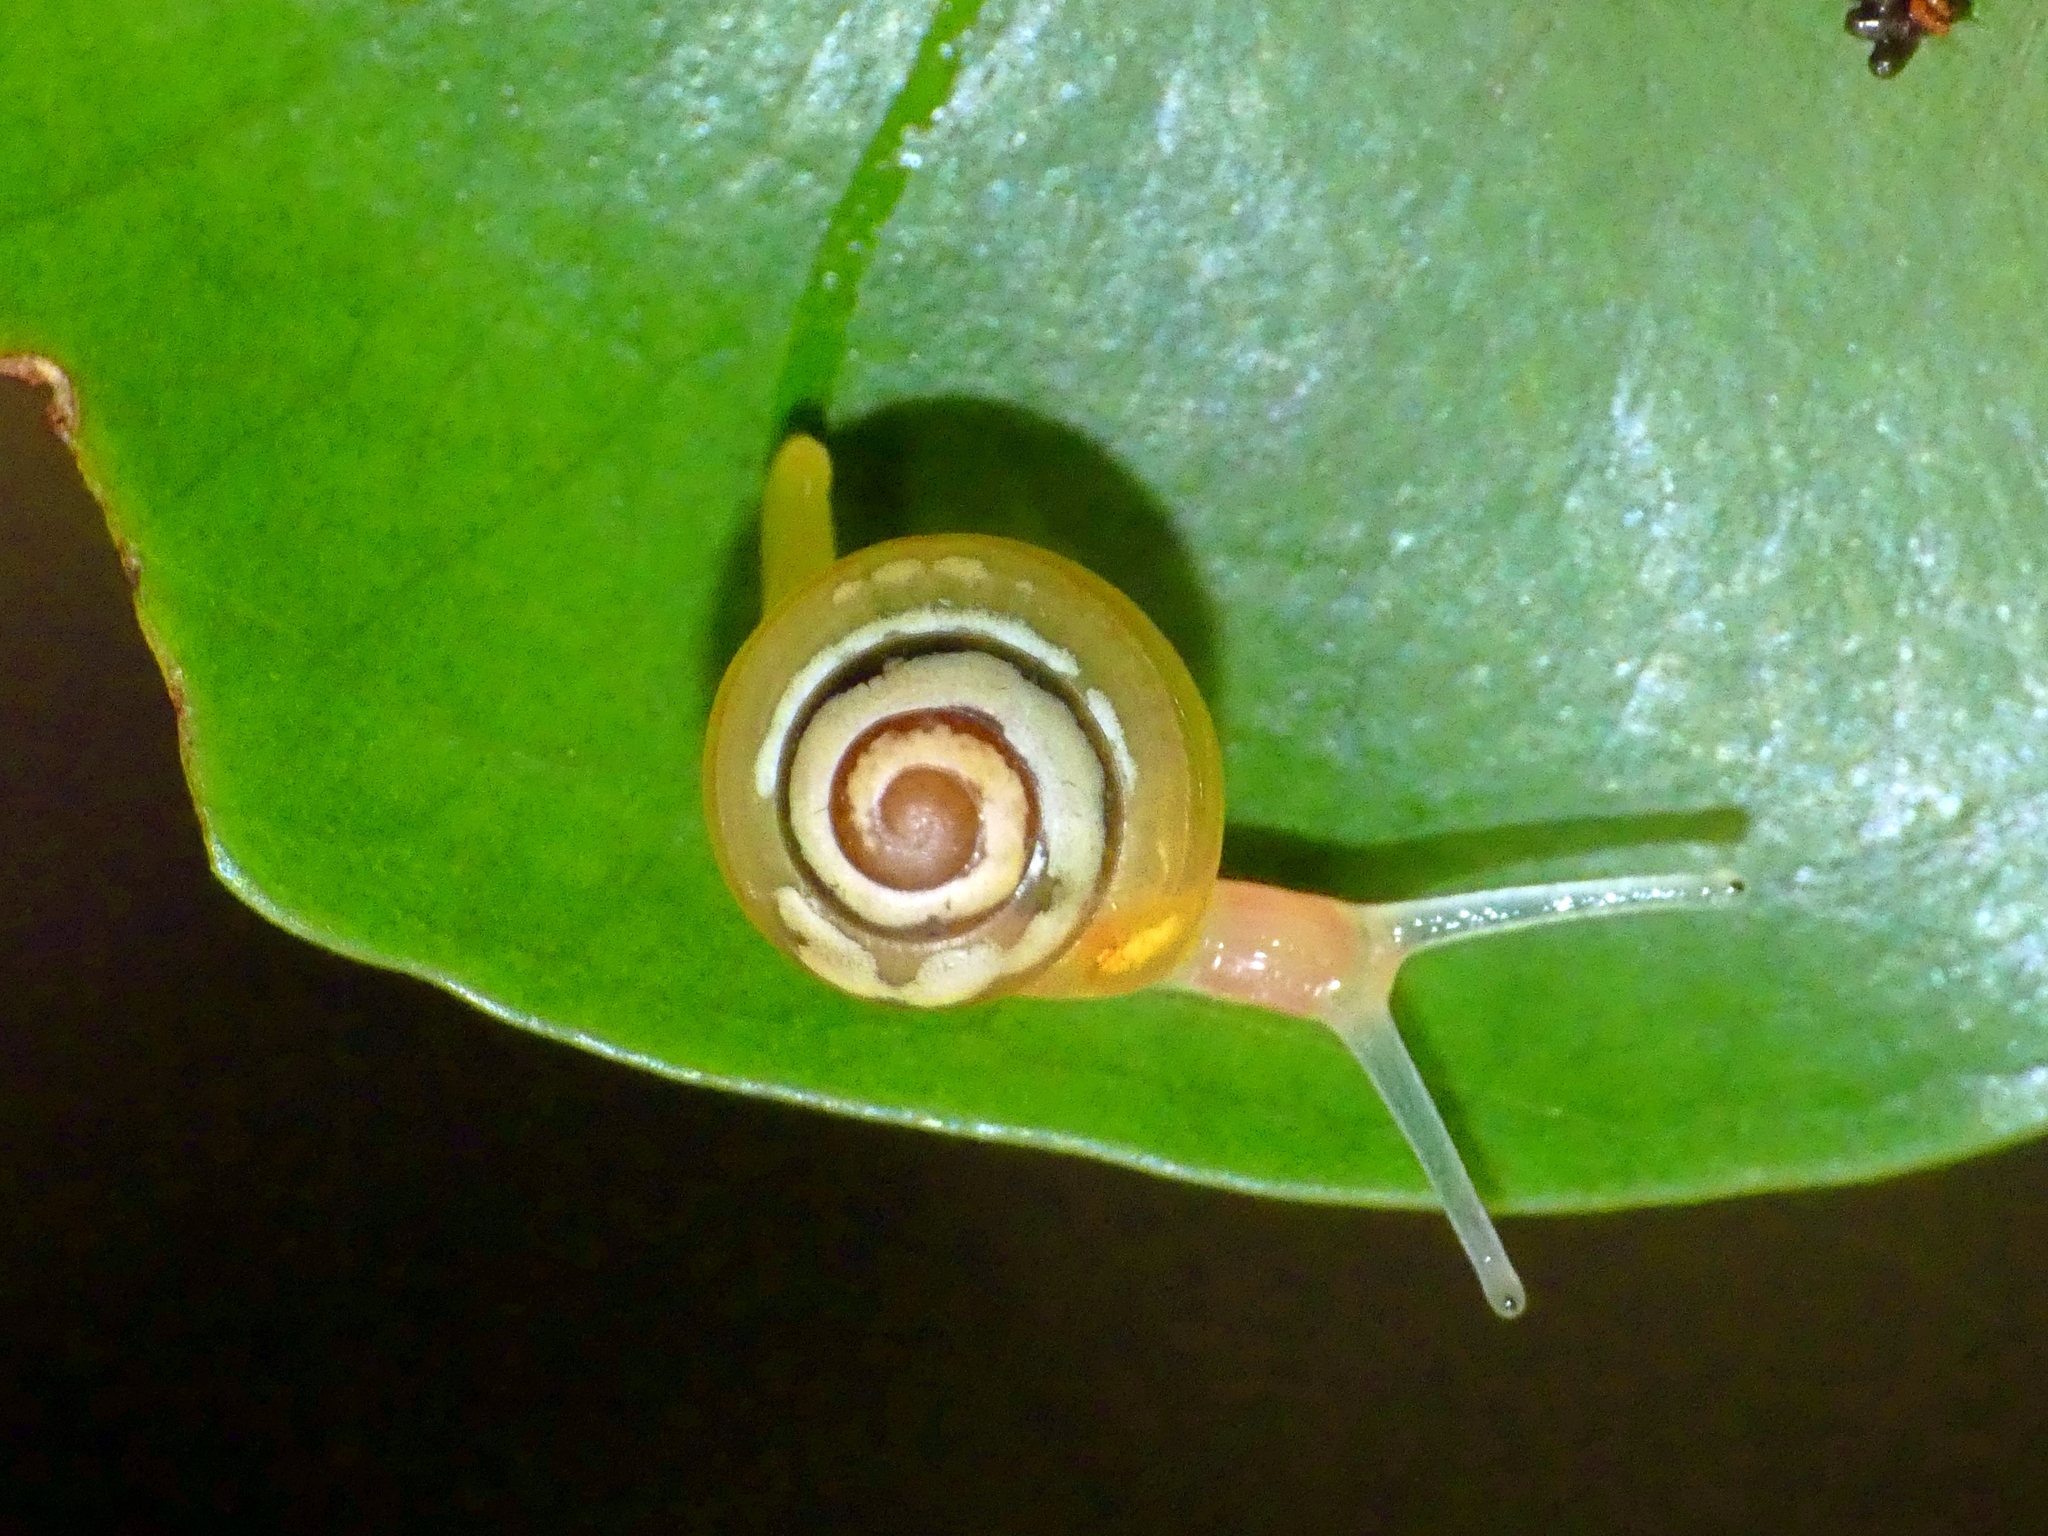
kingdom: Animalia
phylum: Mollusca
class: Gastropoda
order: Stylommatophora
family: Euconulidae
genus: Coneuplecta
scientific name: Coneuplecta pampini
